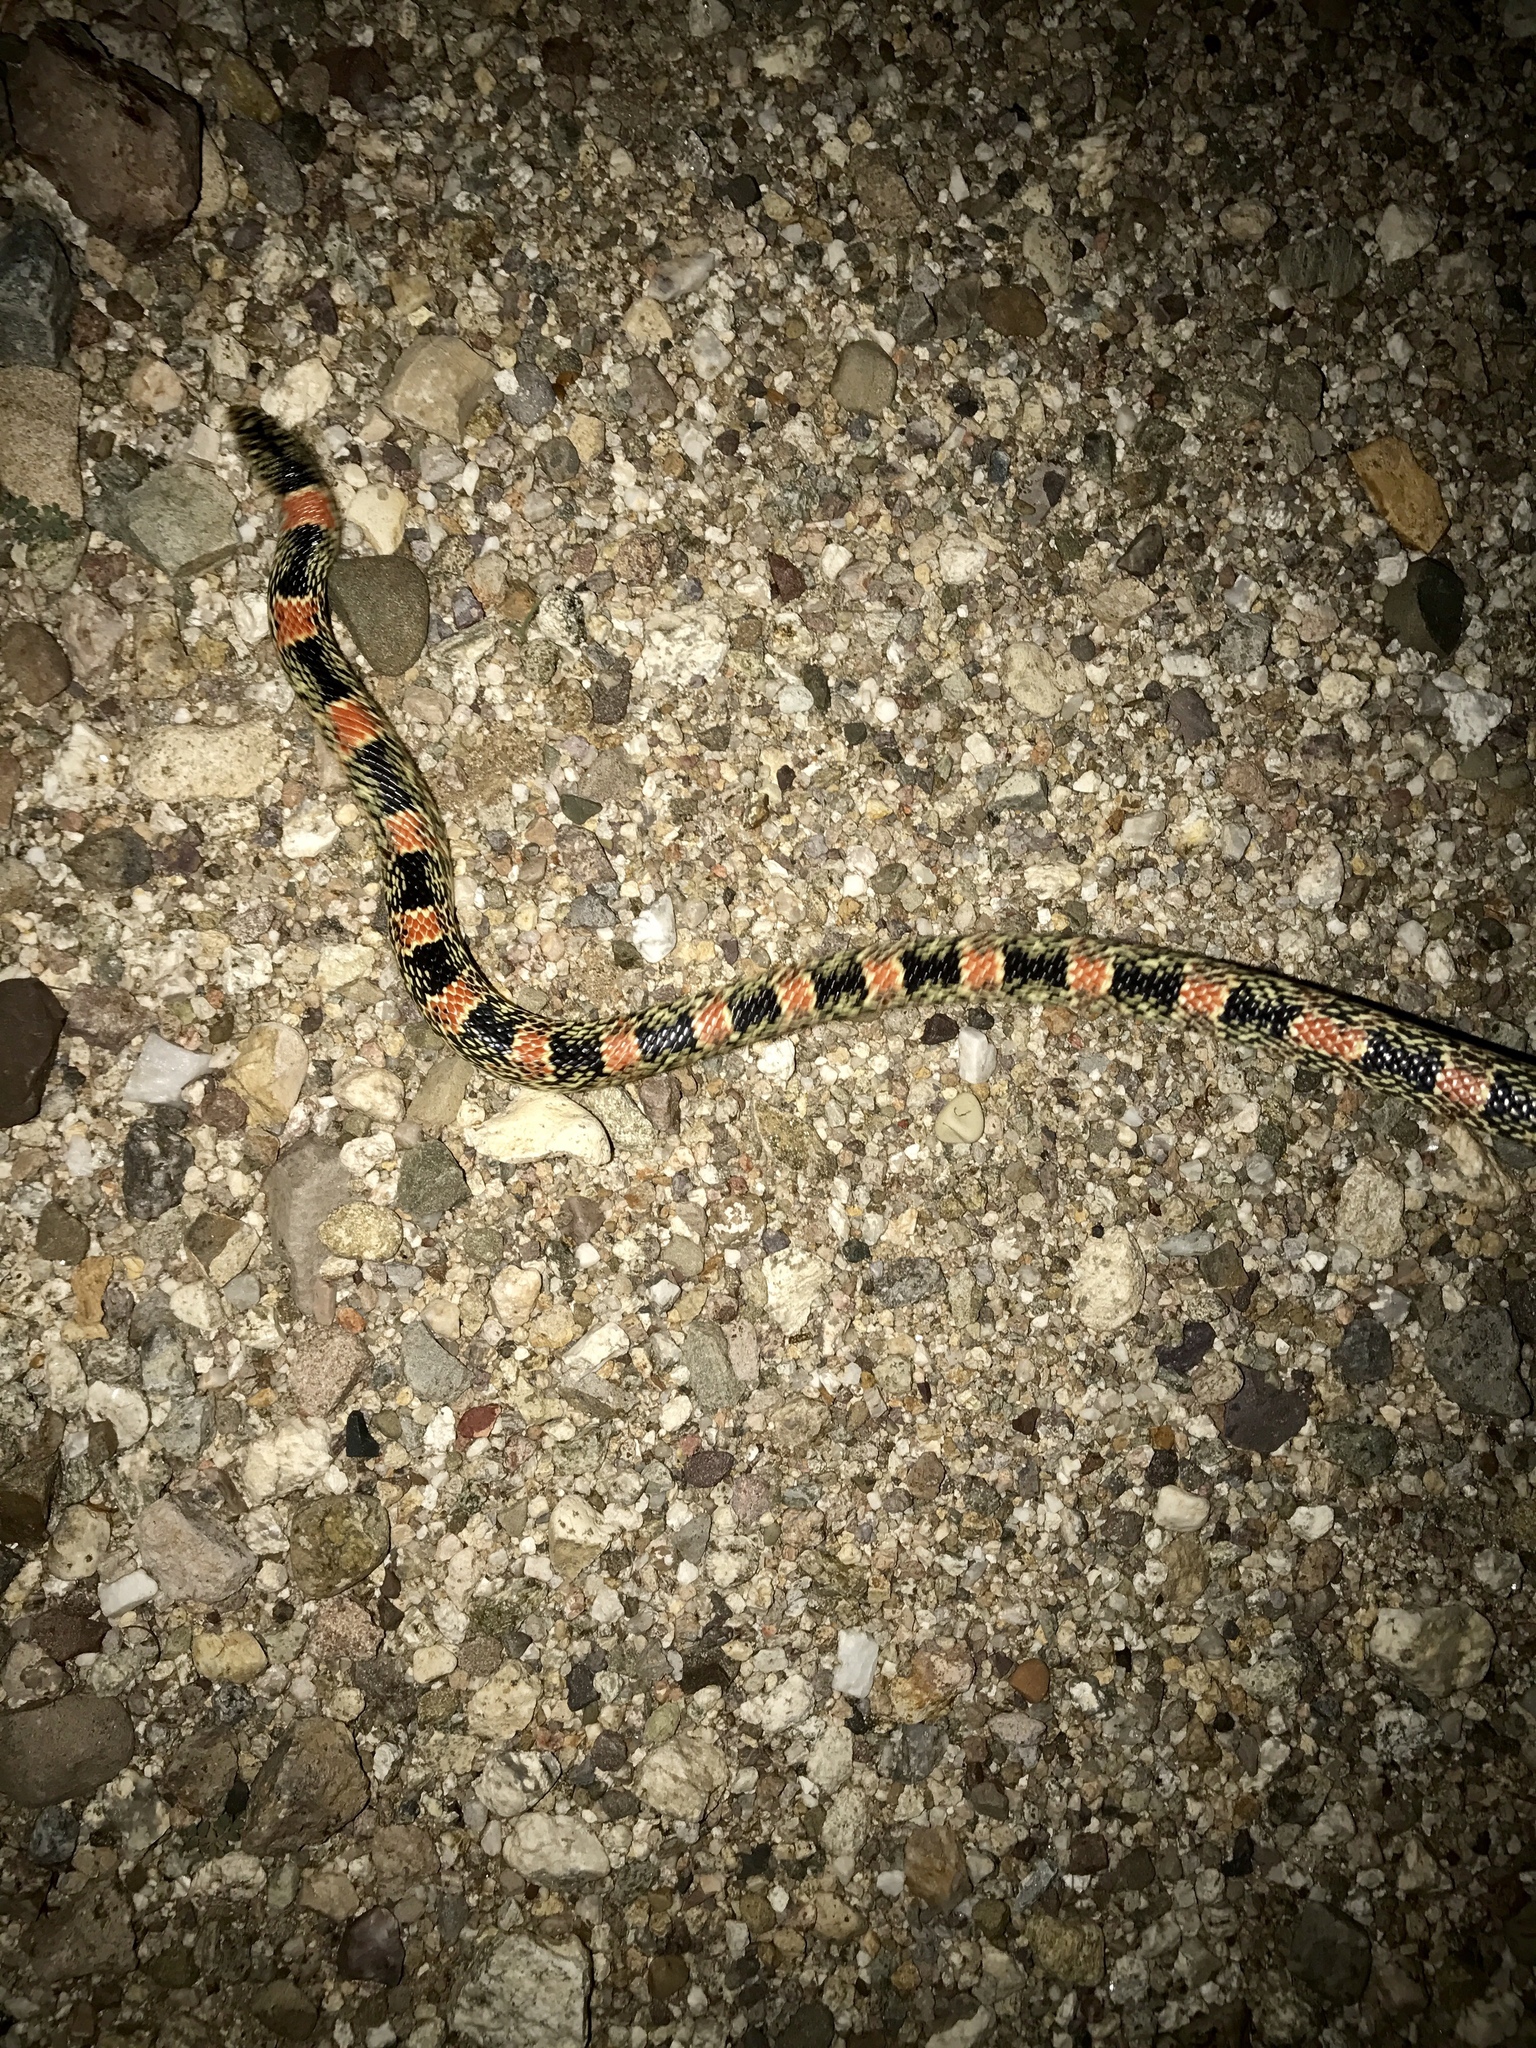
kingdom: Animalia
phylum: Chordata
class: Squamata
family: Colubridae
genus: Rhinocheilus
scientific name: Rhinocheilus lecontei
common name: Longnose snake
